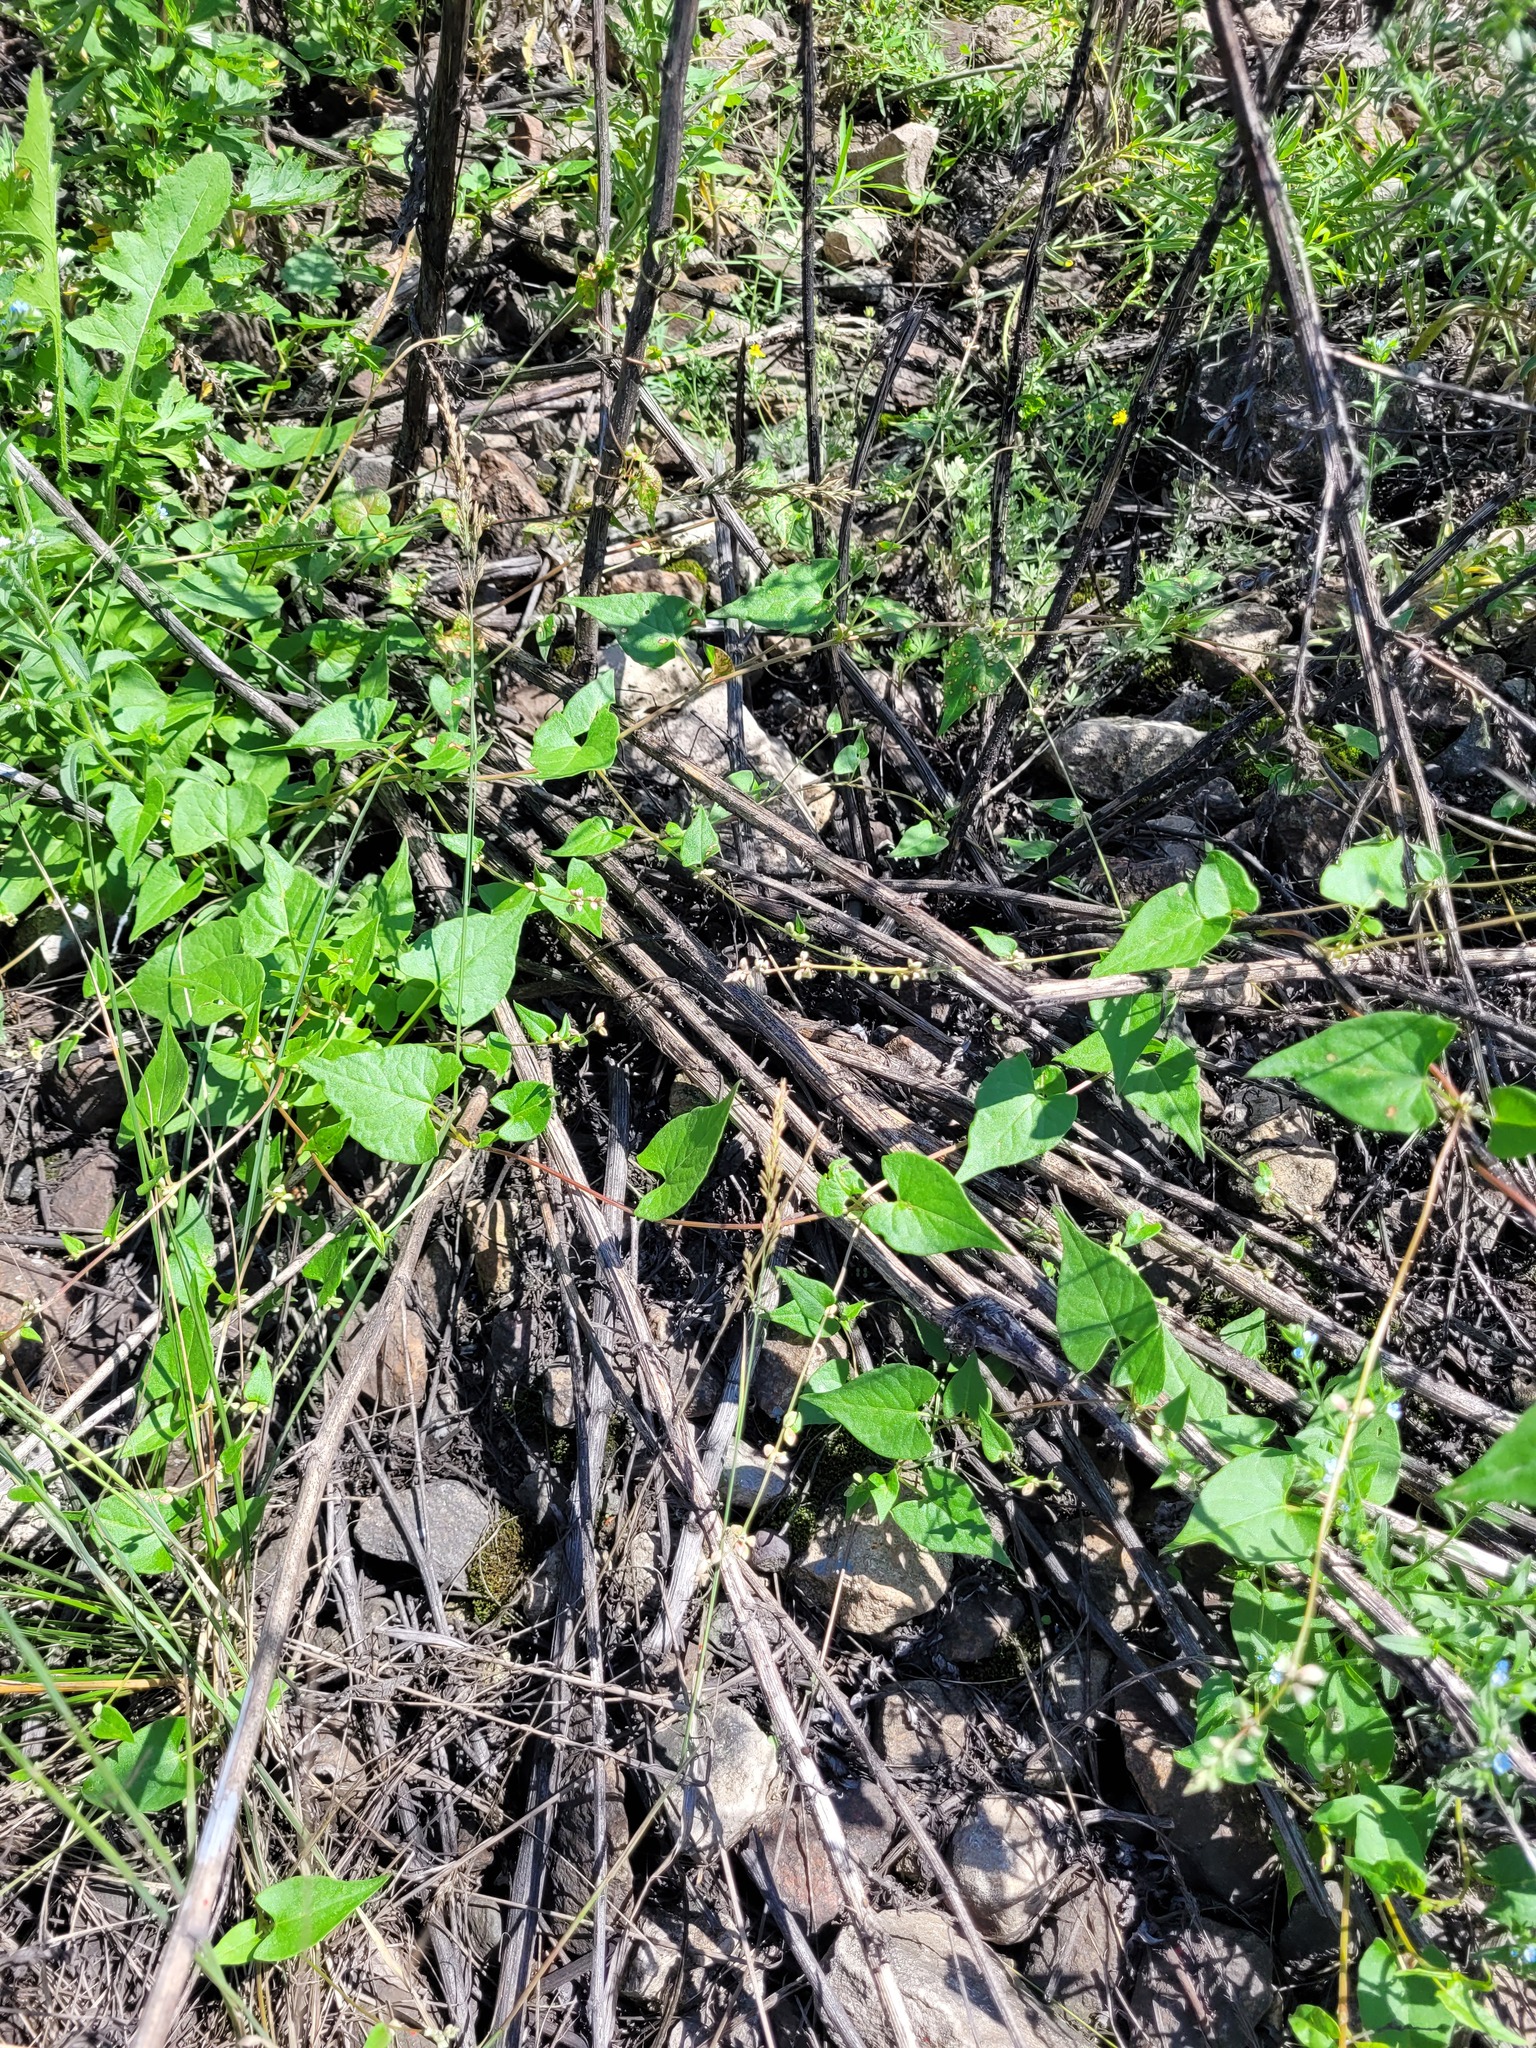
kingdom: Plantae
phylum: Tracheophyta
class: Magnoliopsida
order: Caryophyllales
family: Polygonaceae
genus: Fallopia
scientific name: Fallopia convolvulus
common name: Black bindweed
